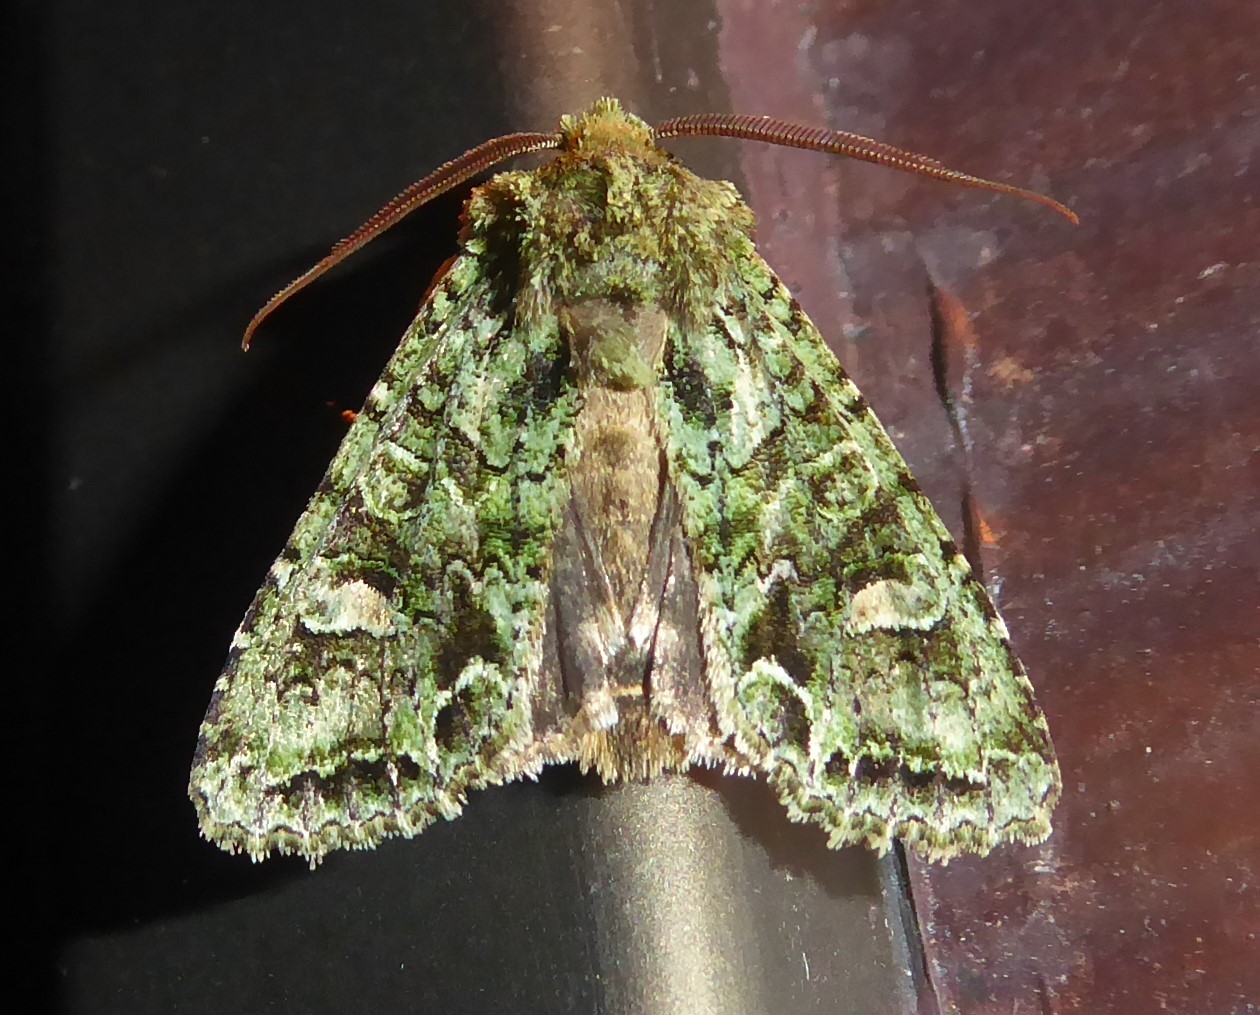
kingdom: Animalia
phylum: Arthropoda
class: Insecta
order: Lepidoptera
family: Noctuidae
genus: Ichneutica
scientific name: Ichneutica
